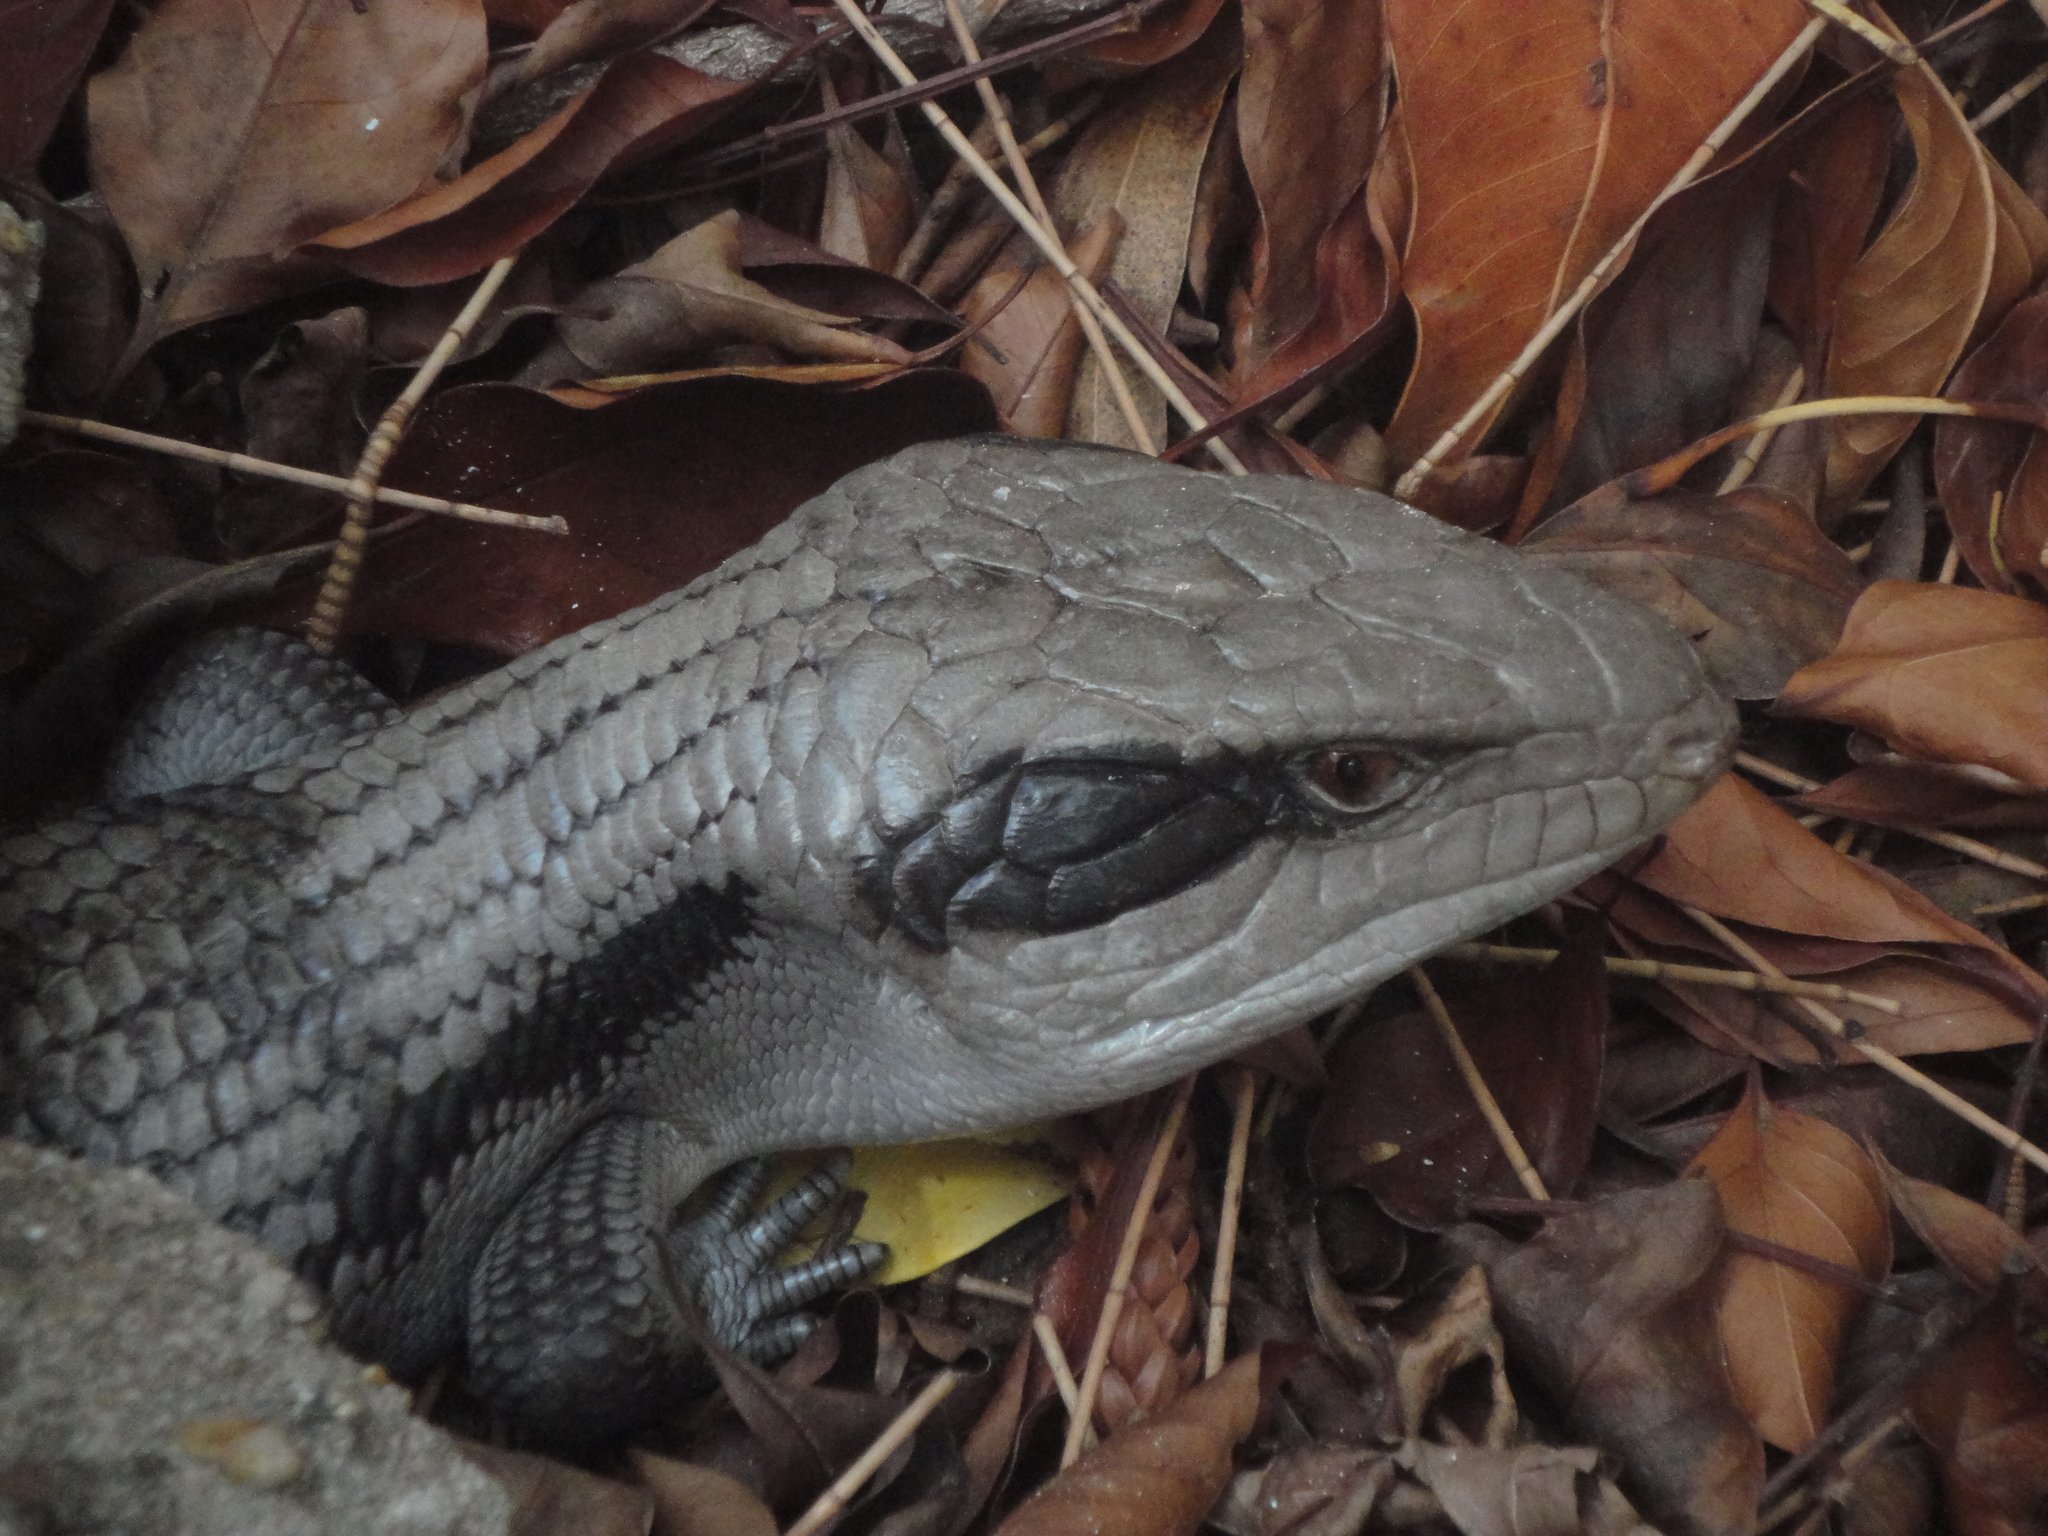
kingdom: Animalia
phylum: Chordata
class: Squamata
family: Scincidae
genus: Tiliqua
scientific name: Tiliqua scincoides
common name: Common bluetongue
